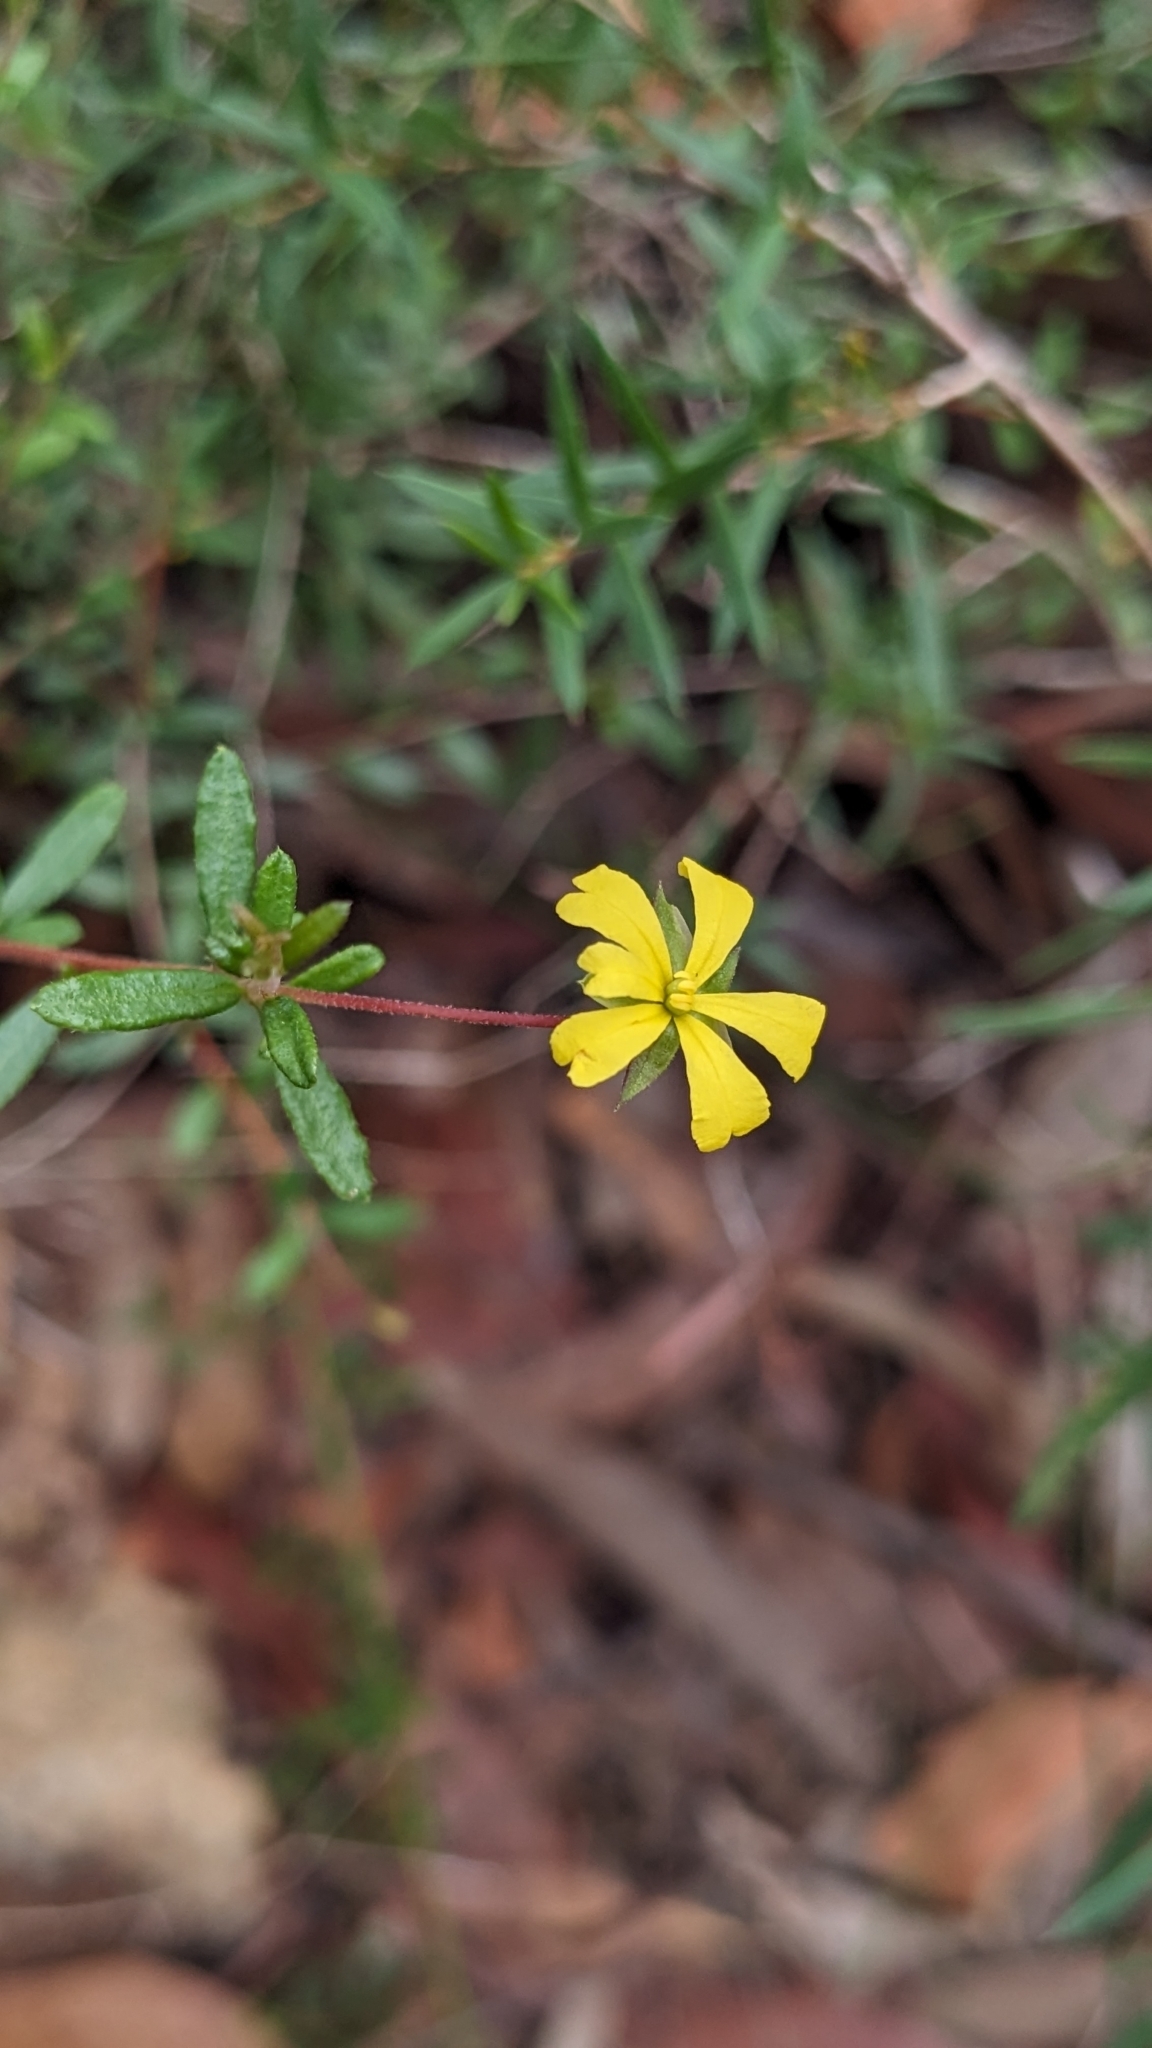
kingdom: Plantae
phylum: Tracheophyta
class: Magnoliopsida
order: Dilleniales
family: Dilleniaceae
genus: Hibbertia
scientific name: Hibbertia empetrifolia
